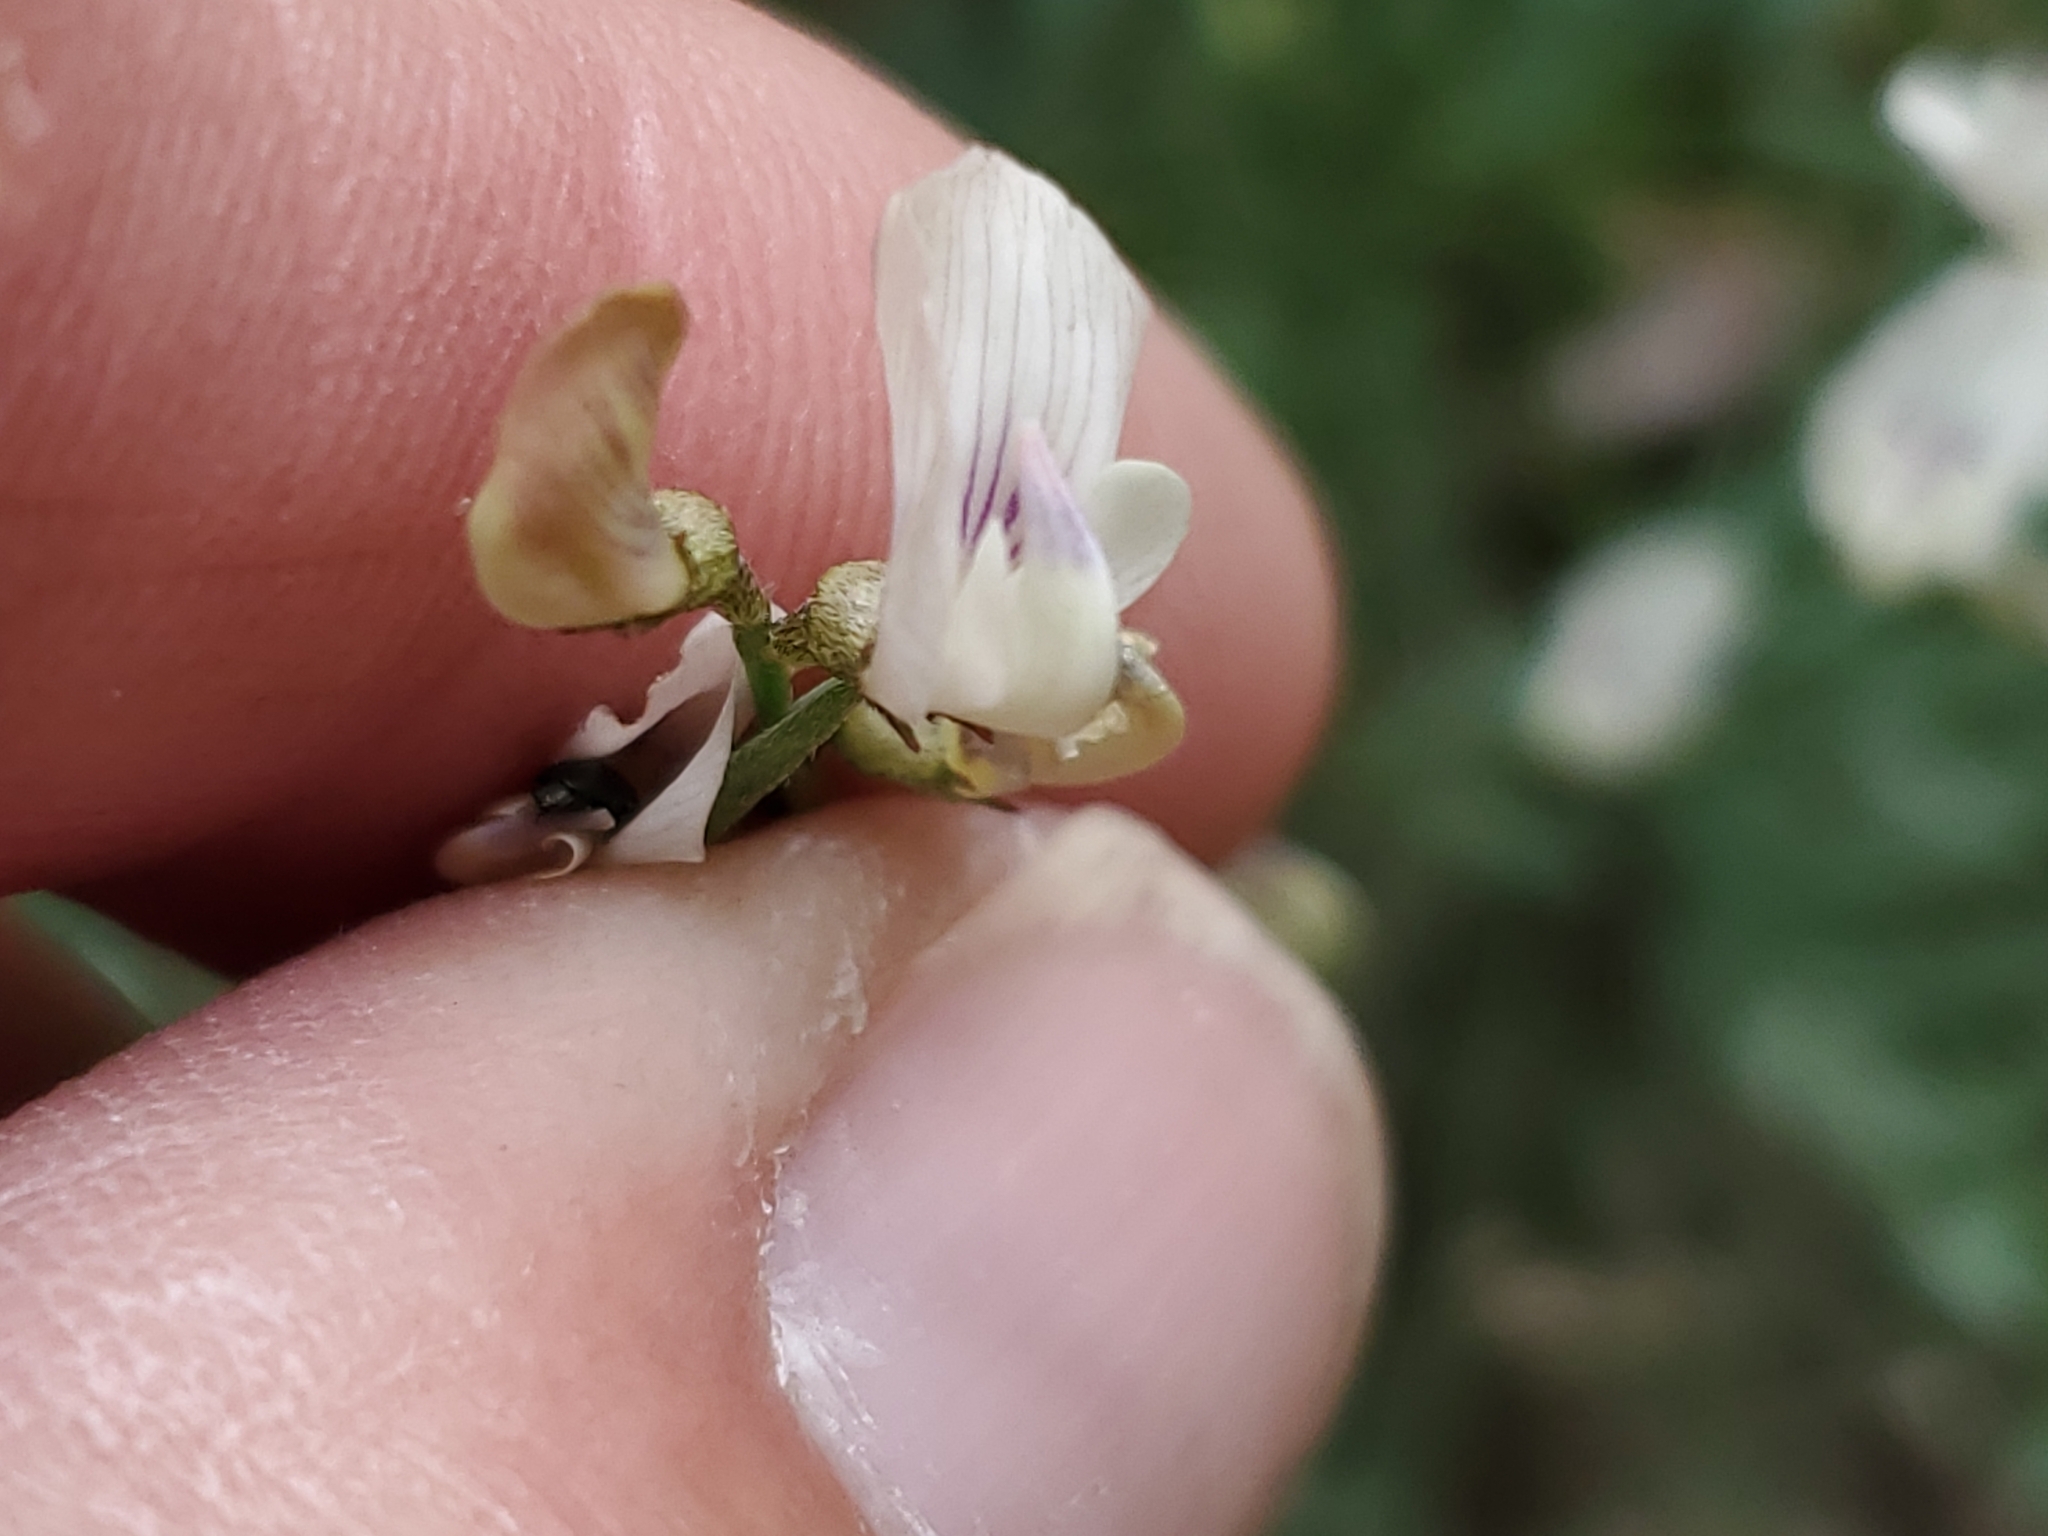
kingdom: Plantae
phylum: Tracheophyta
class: Magnoliopsida
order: Fabales
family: Fabaceae
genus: Astragalus
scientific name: Astragalus miser
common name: Timber milkvetch
